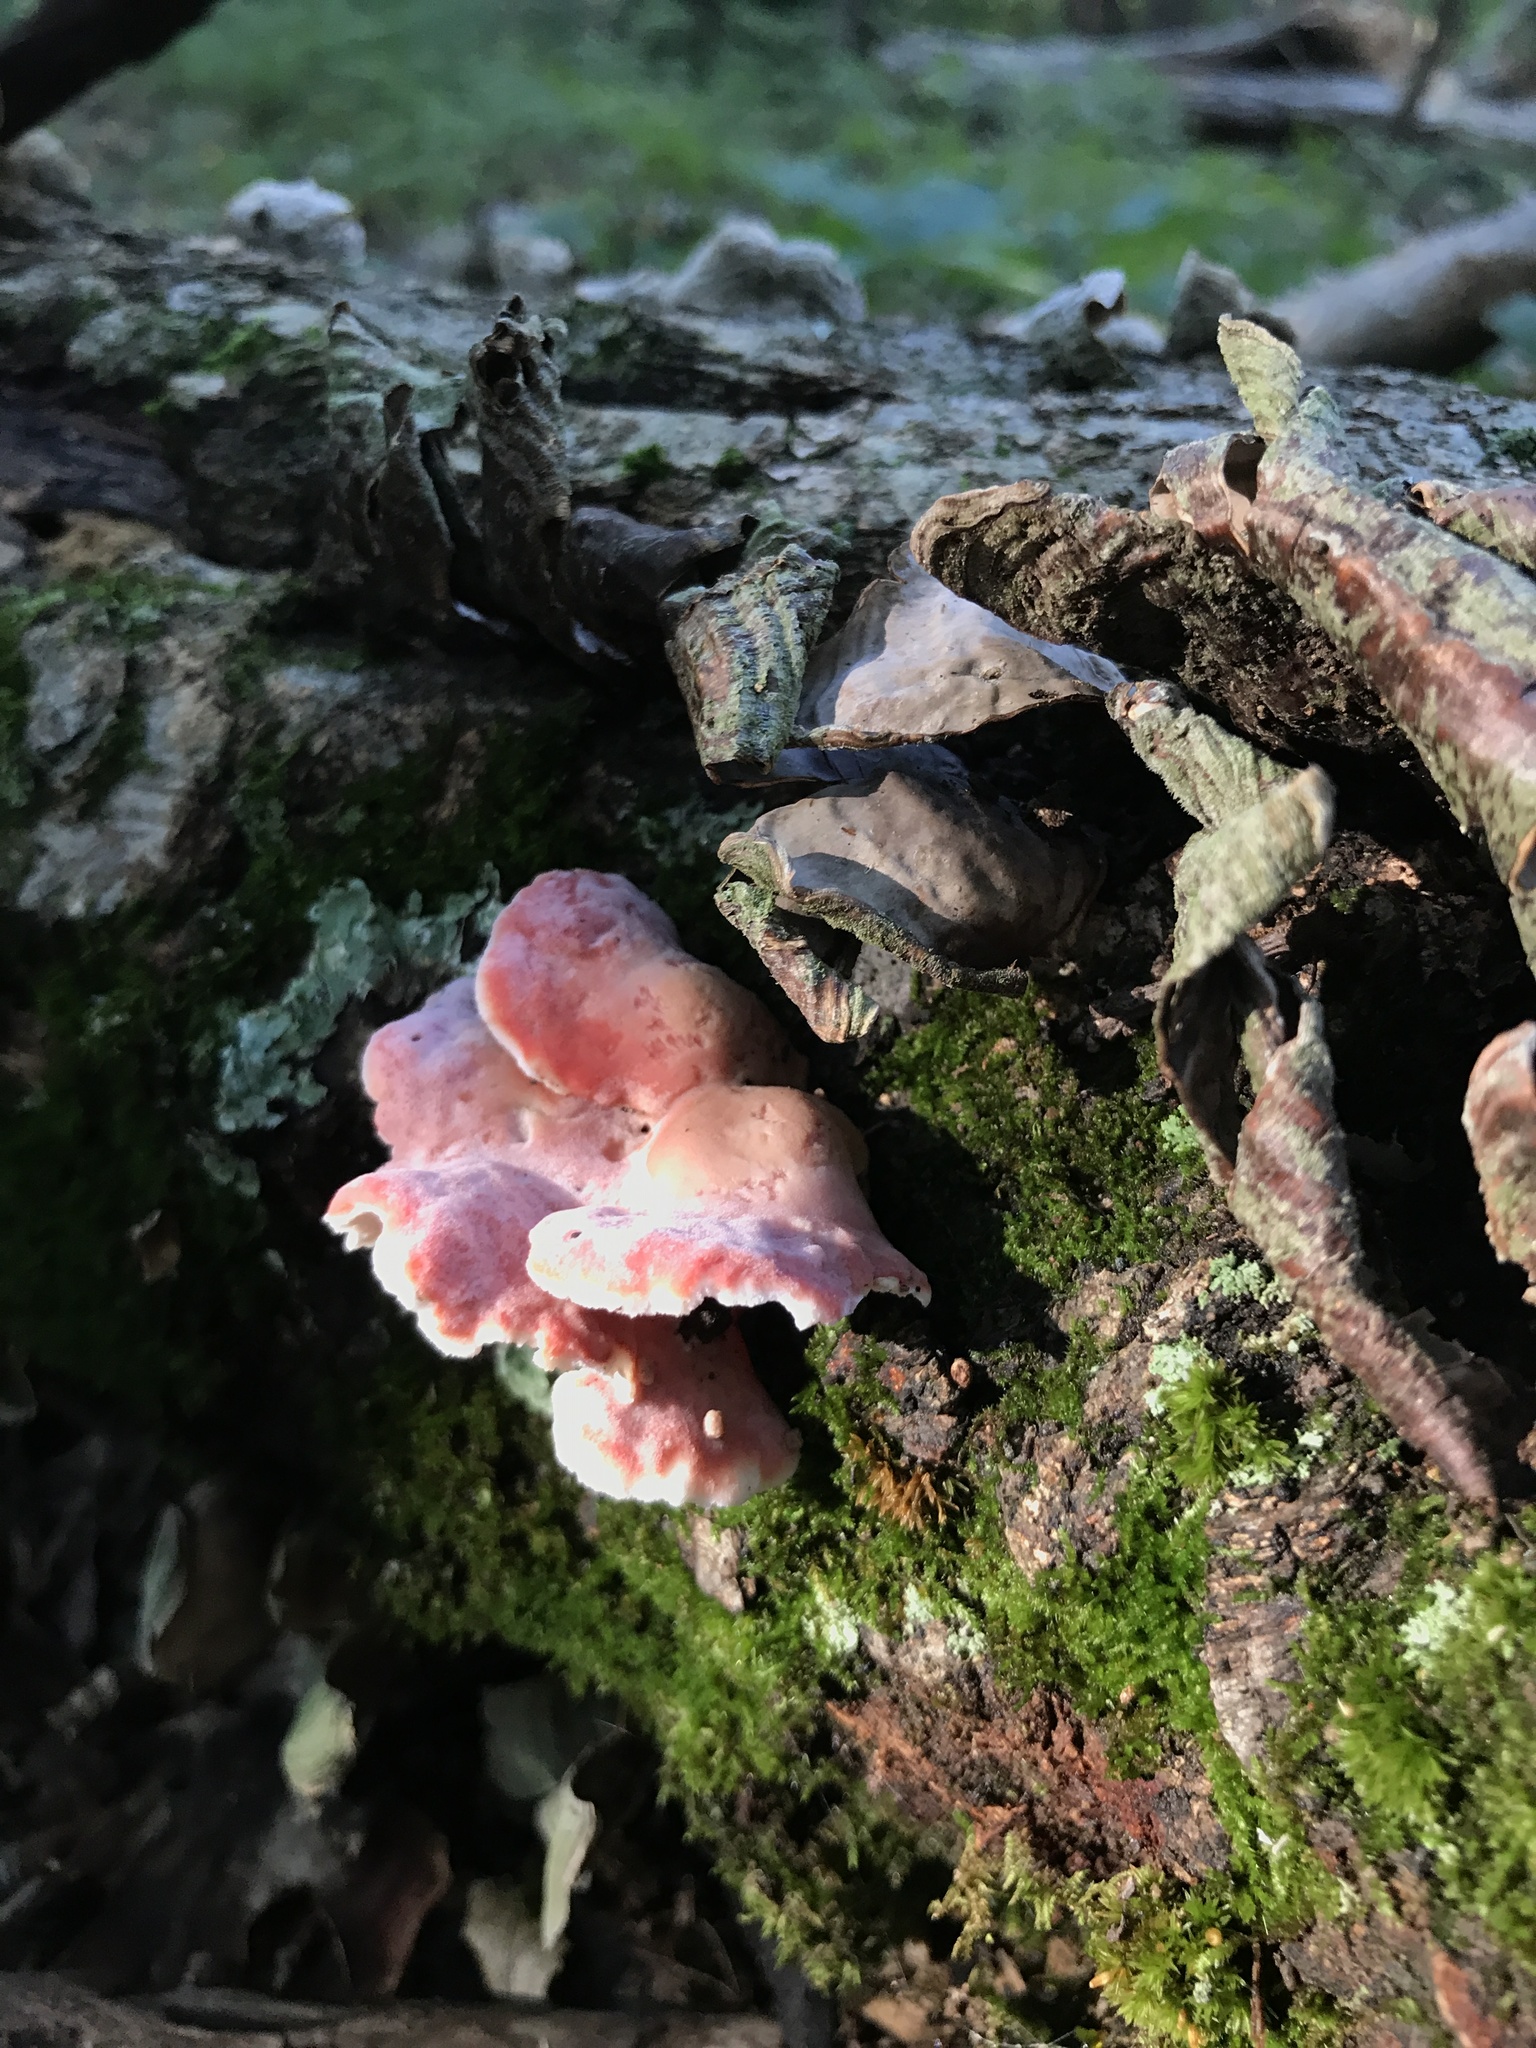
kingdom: Fungi
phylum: Basidiomycota
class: Agaricomycetes
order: Polyporales
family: Irpicaceae
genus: Byssomerulius
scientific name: Byssomerulius incarnatus
